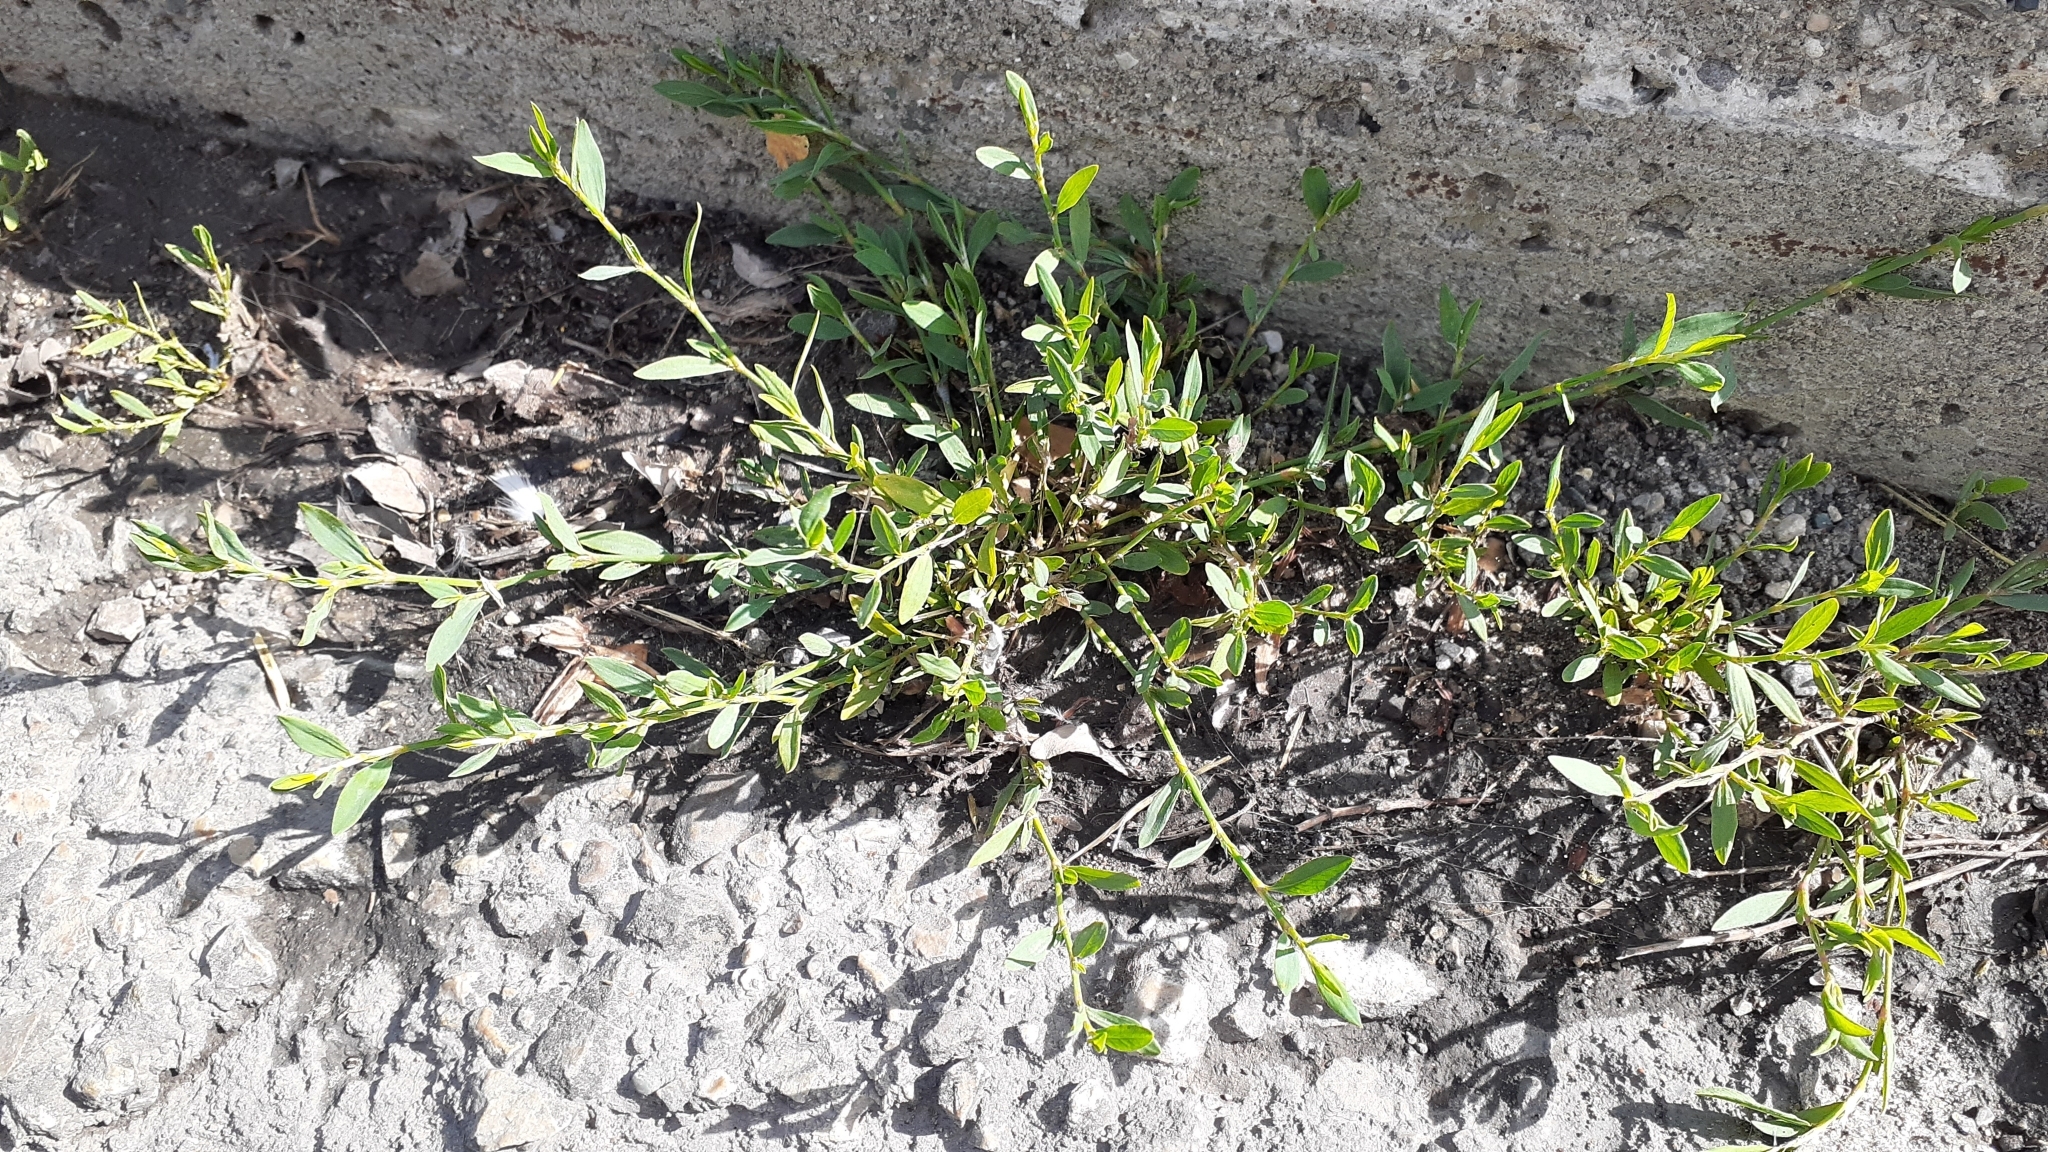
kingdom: Plantae
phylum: Tracheophyta
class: Magnoliopsida
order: Caryophyllales
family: Polygonaceae
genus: Polygonum
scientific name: Polygonum aviculare
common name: Prostrate knotweed
